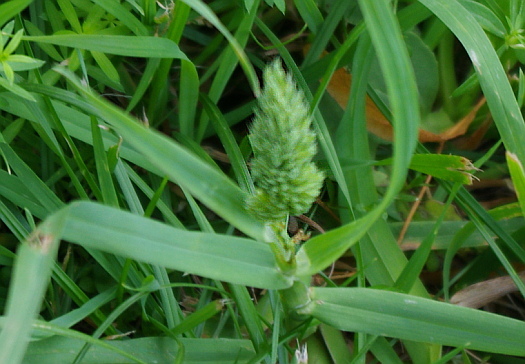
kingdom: Plantae
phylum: Tracheophyta
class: Liliopsida
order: Poales
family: Poaceae
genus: Dactylis
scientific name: Dactylis glomerata
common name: Orchardgrass
